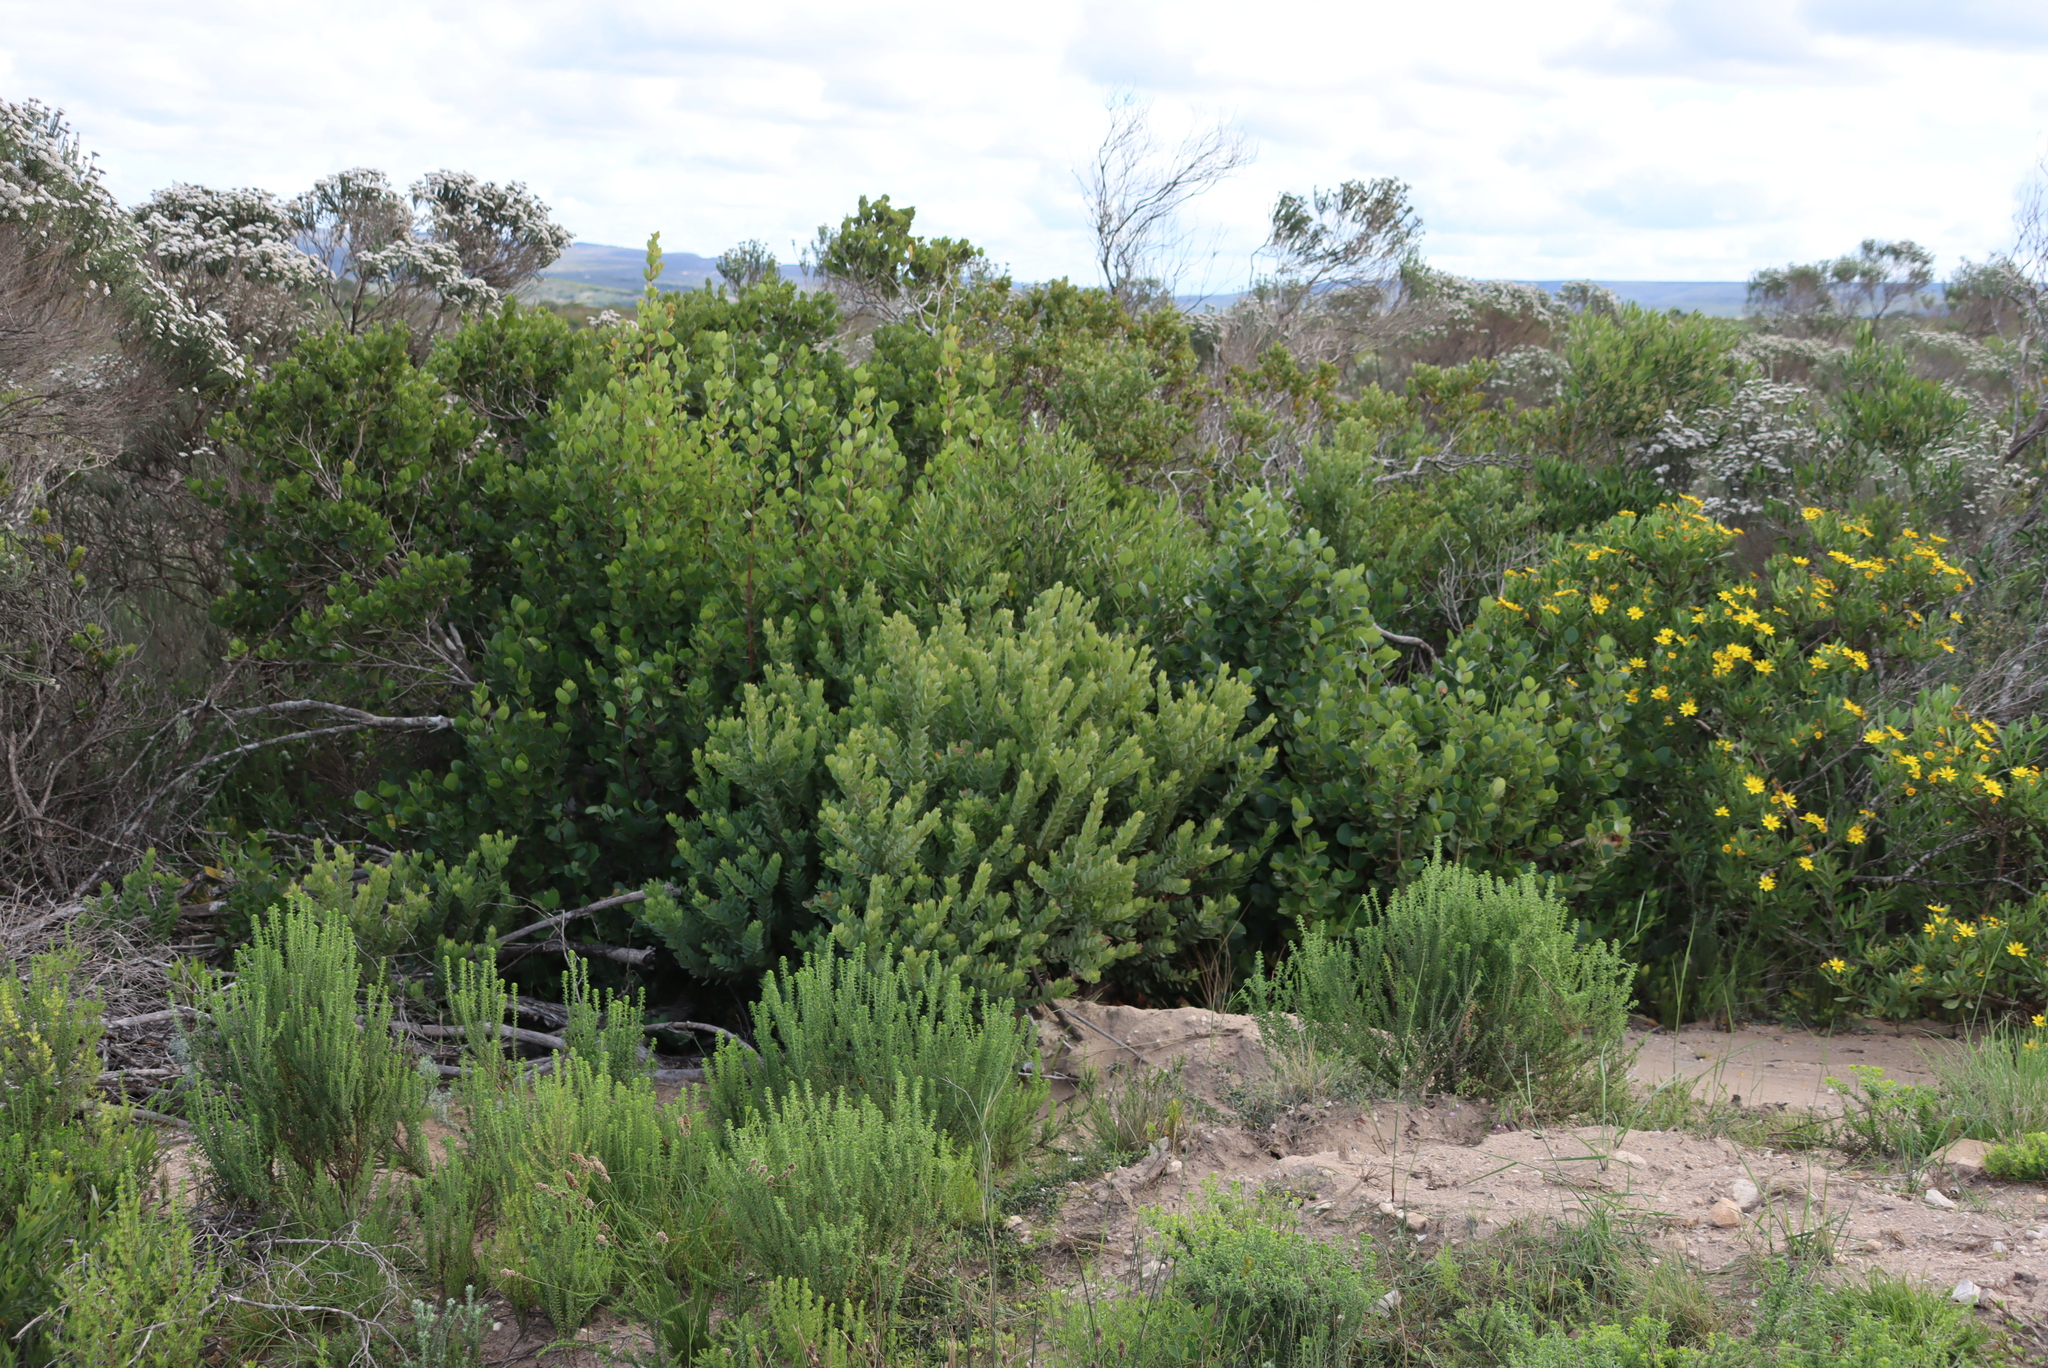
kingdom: Plantae
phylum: Tracheophyta
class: Magnoliopsida
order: Santalales
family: Santalaceae
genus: Osyris
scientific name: Osyris compressa
